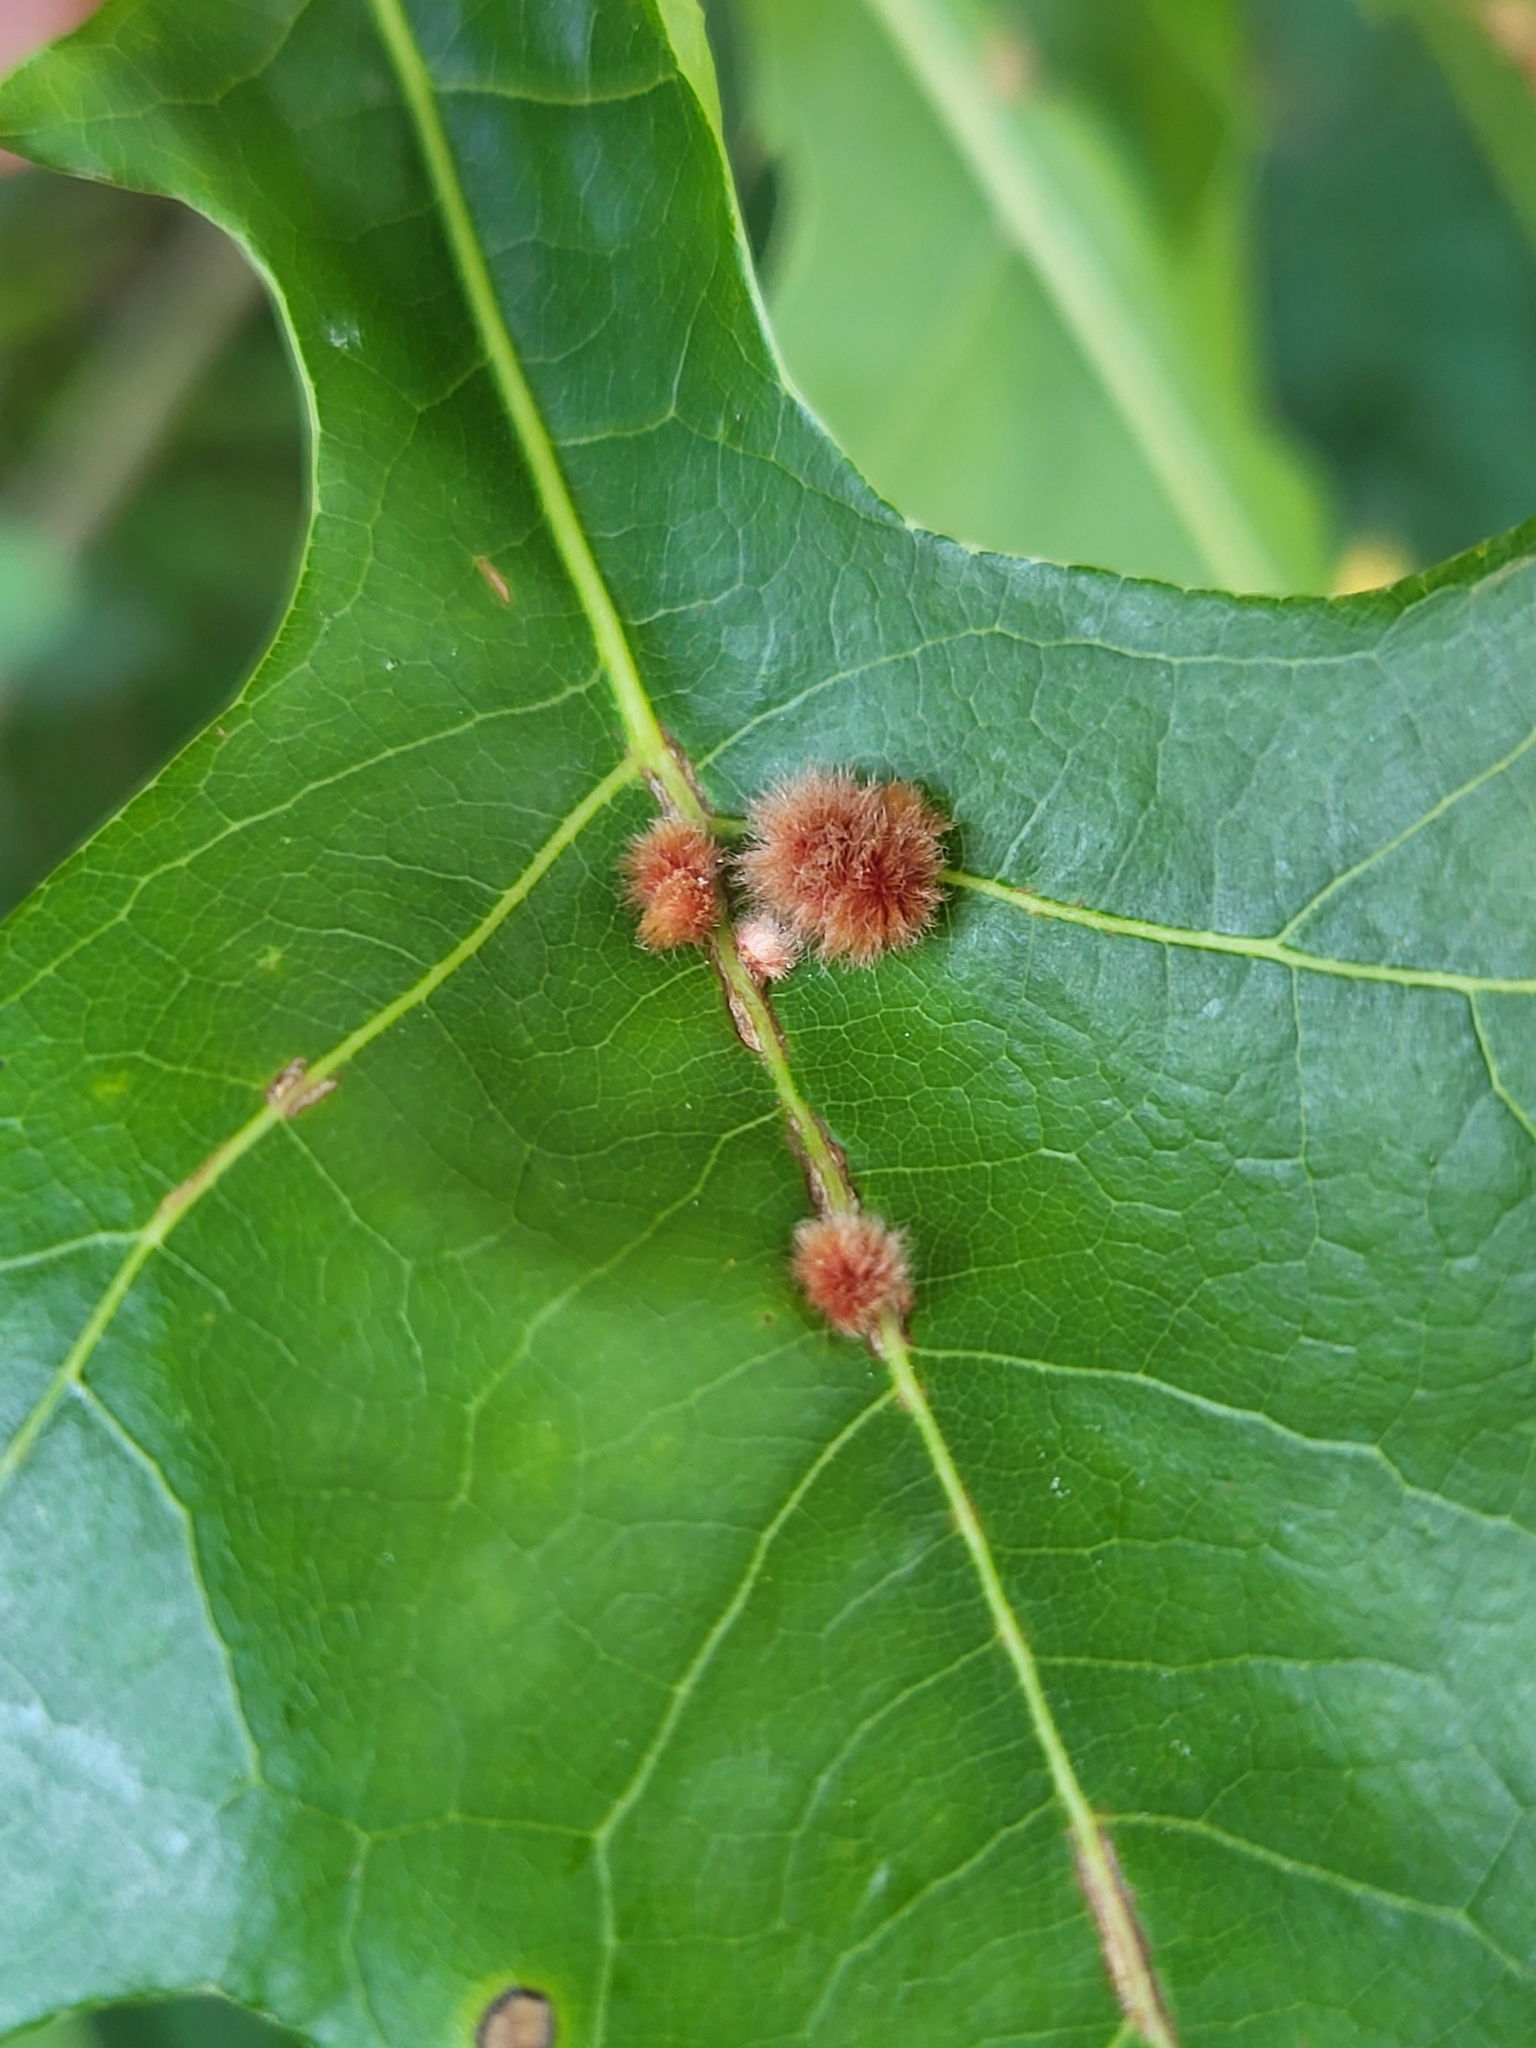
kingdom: Animalia
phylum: Arthropoda
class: Insecta
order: Hymenoptera
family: Cynipidae
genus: Callirhytis
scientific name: Callirhytis
